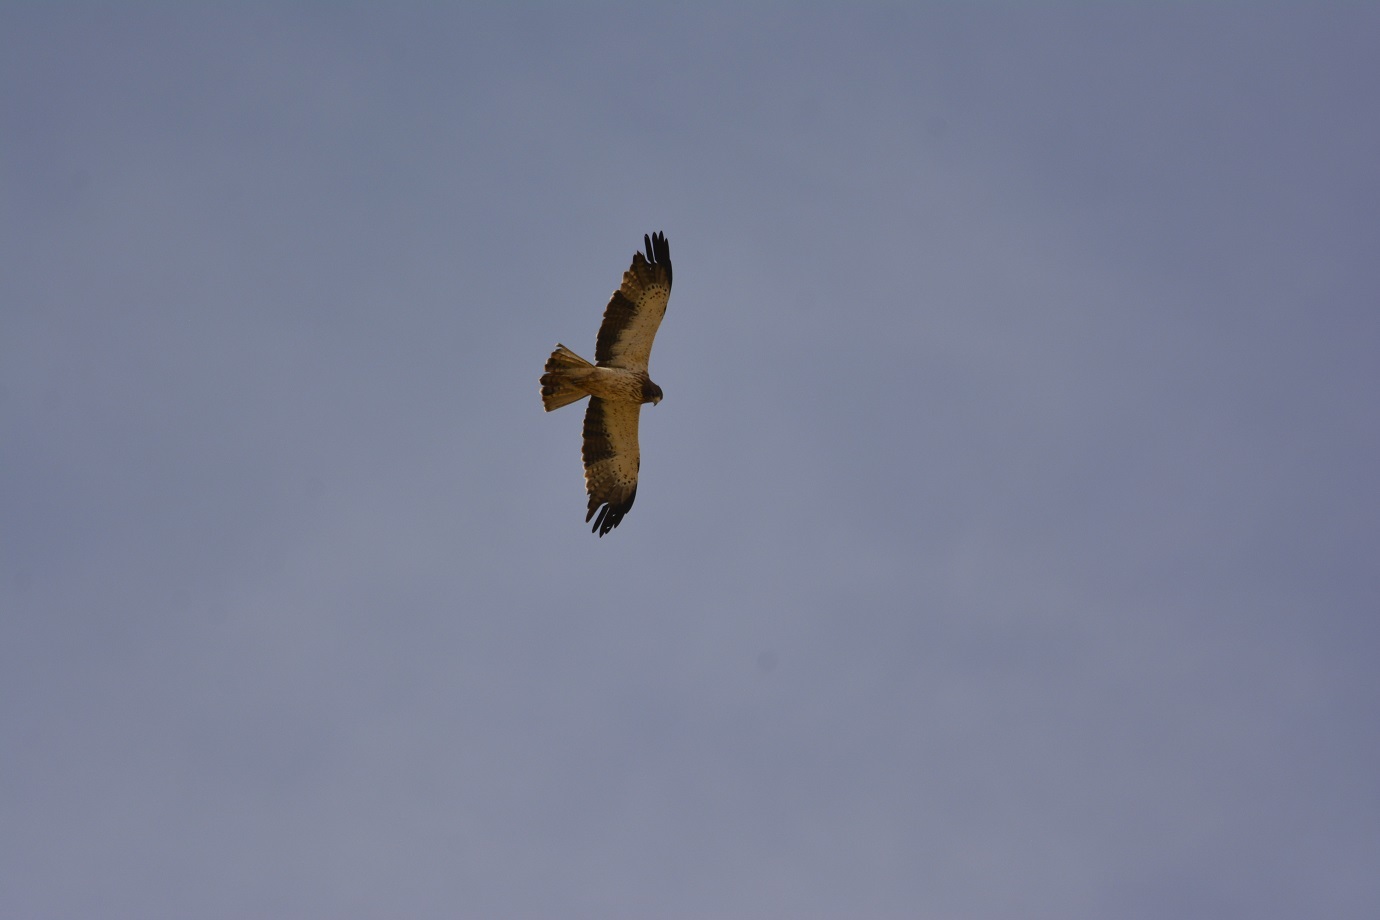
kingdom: Animalia
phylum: Chordata
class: Aves
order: Accipitriformes
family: Accipitridae
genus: Hieraaetus
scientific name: Hieraaetus pennatus
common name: Booted eagle
